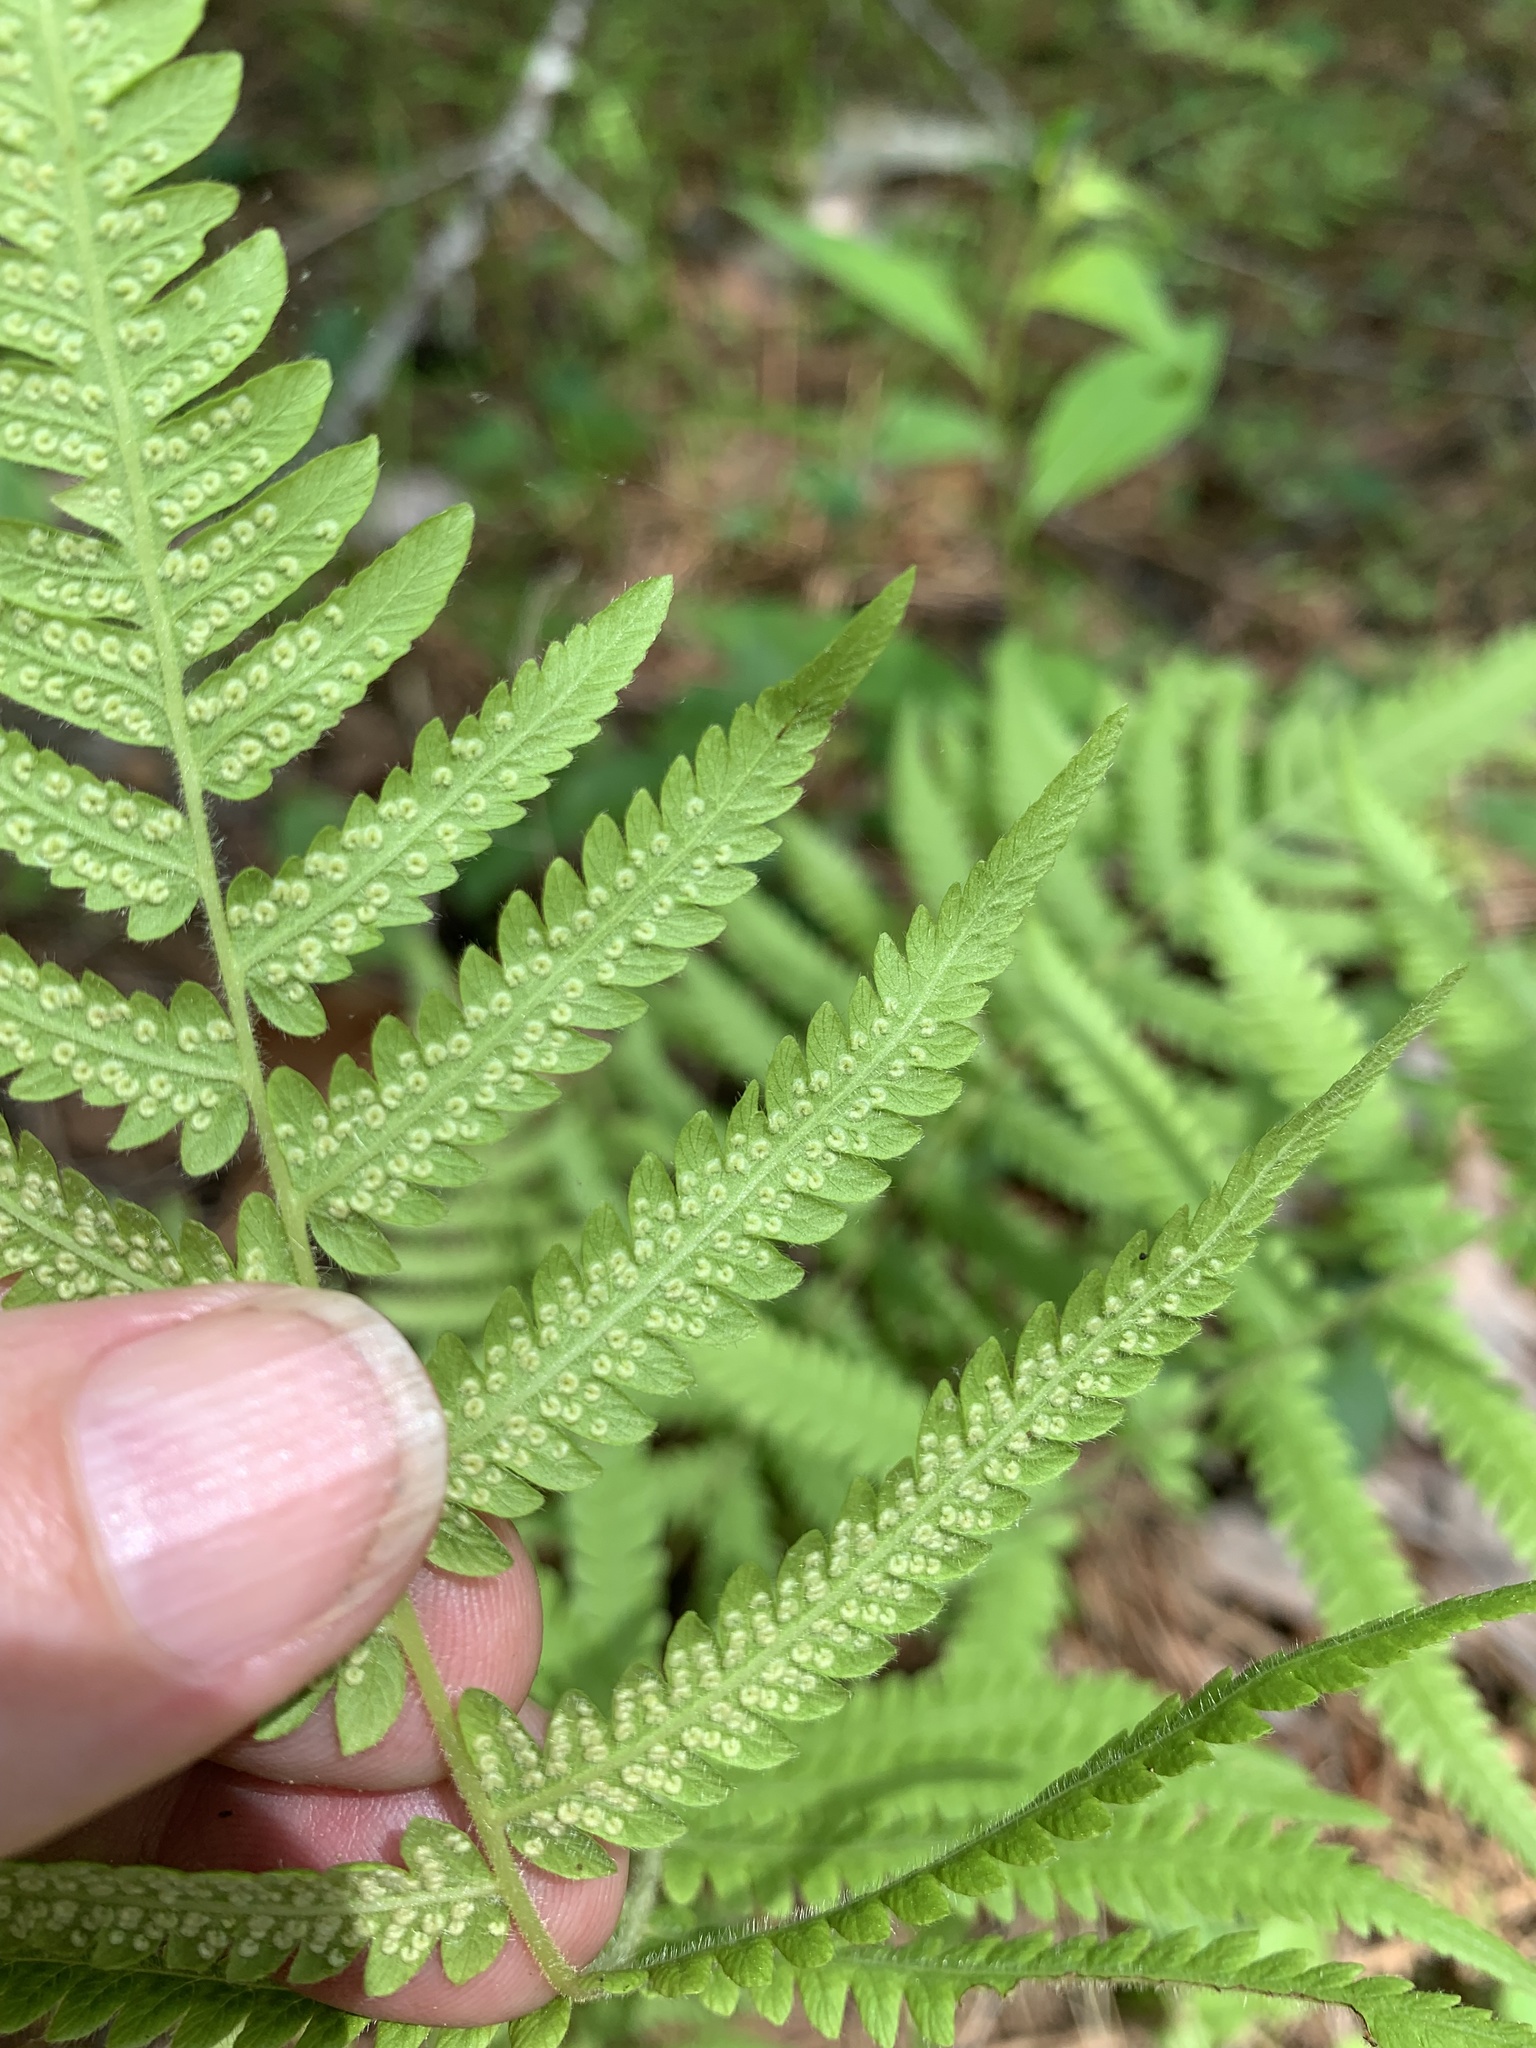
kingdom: Plantae
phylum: Tracheophyta
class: Polypodiopsida
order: Polypodiales
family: Thelypteridaceae
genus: Pelazoneuron
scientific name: Pelazoneuron kunthii
